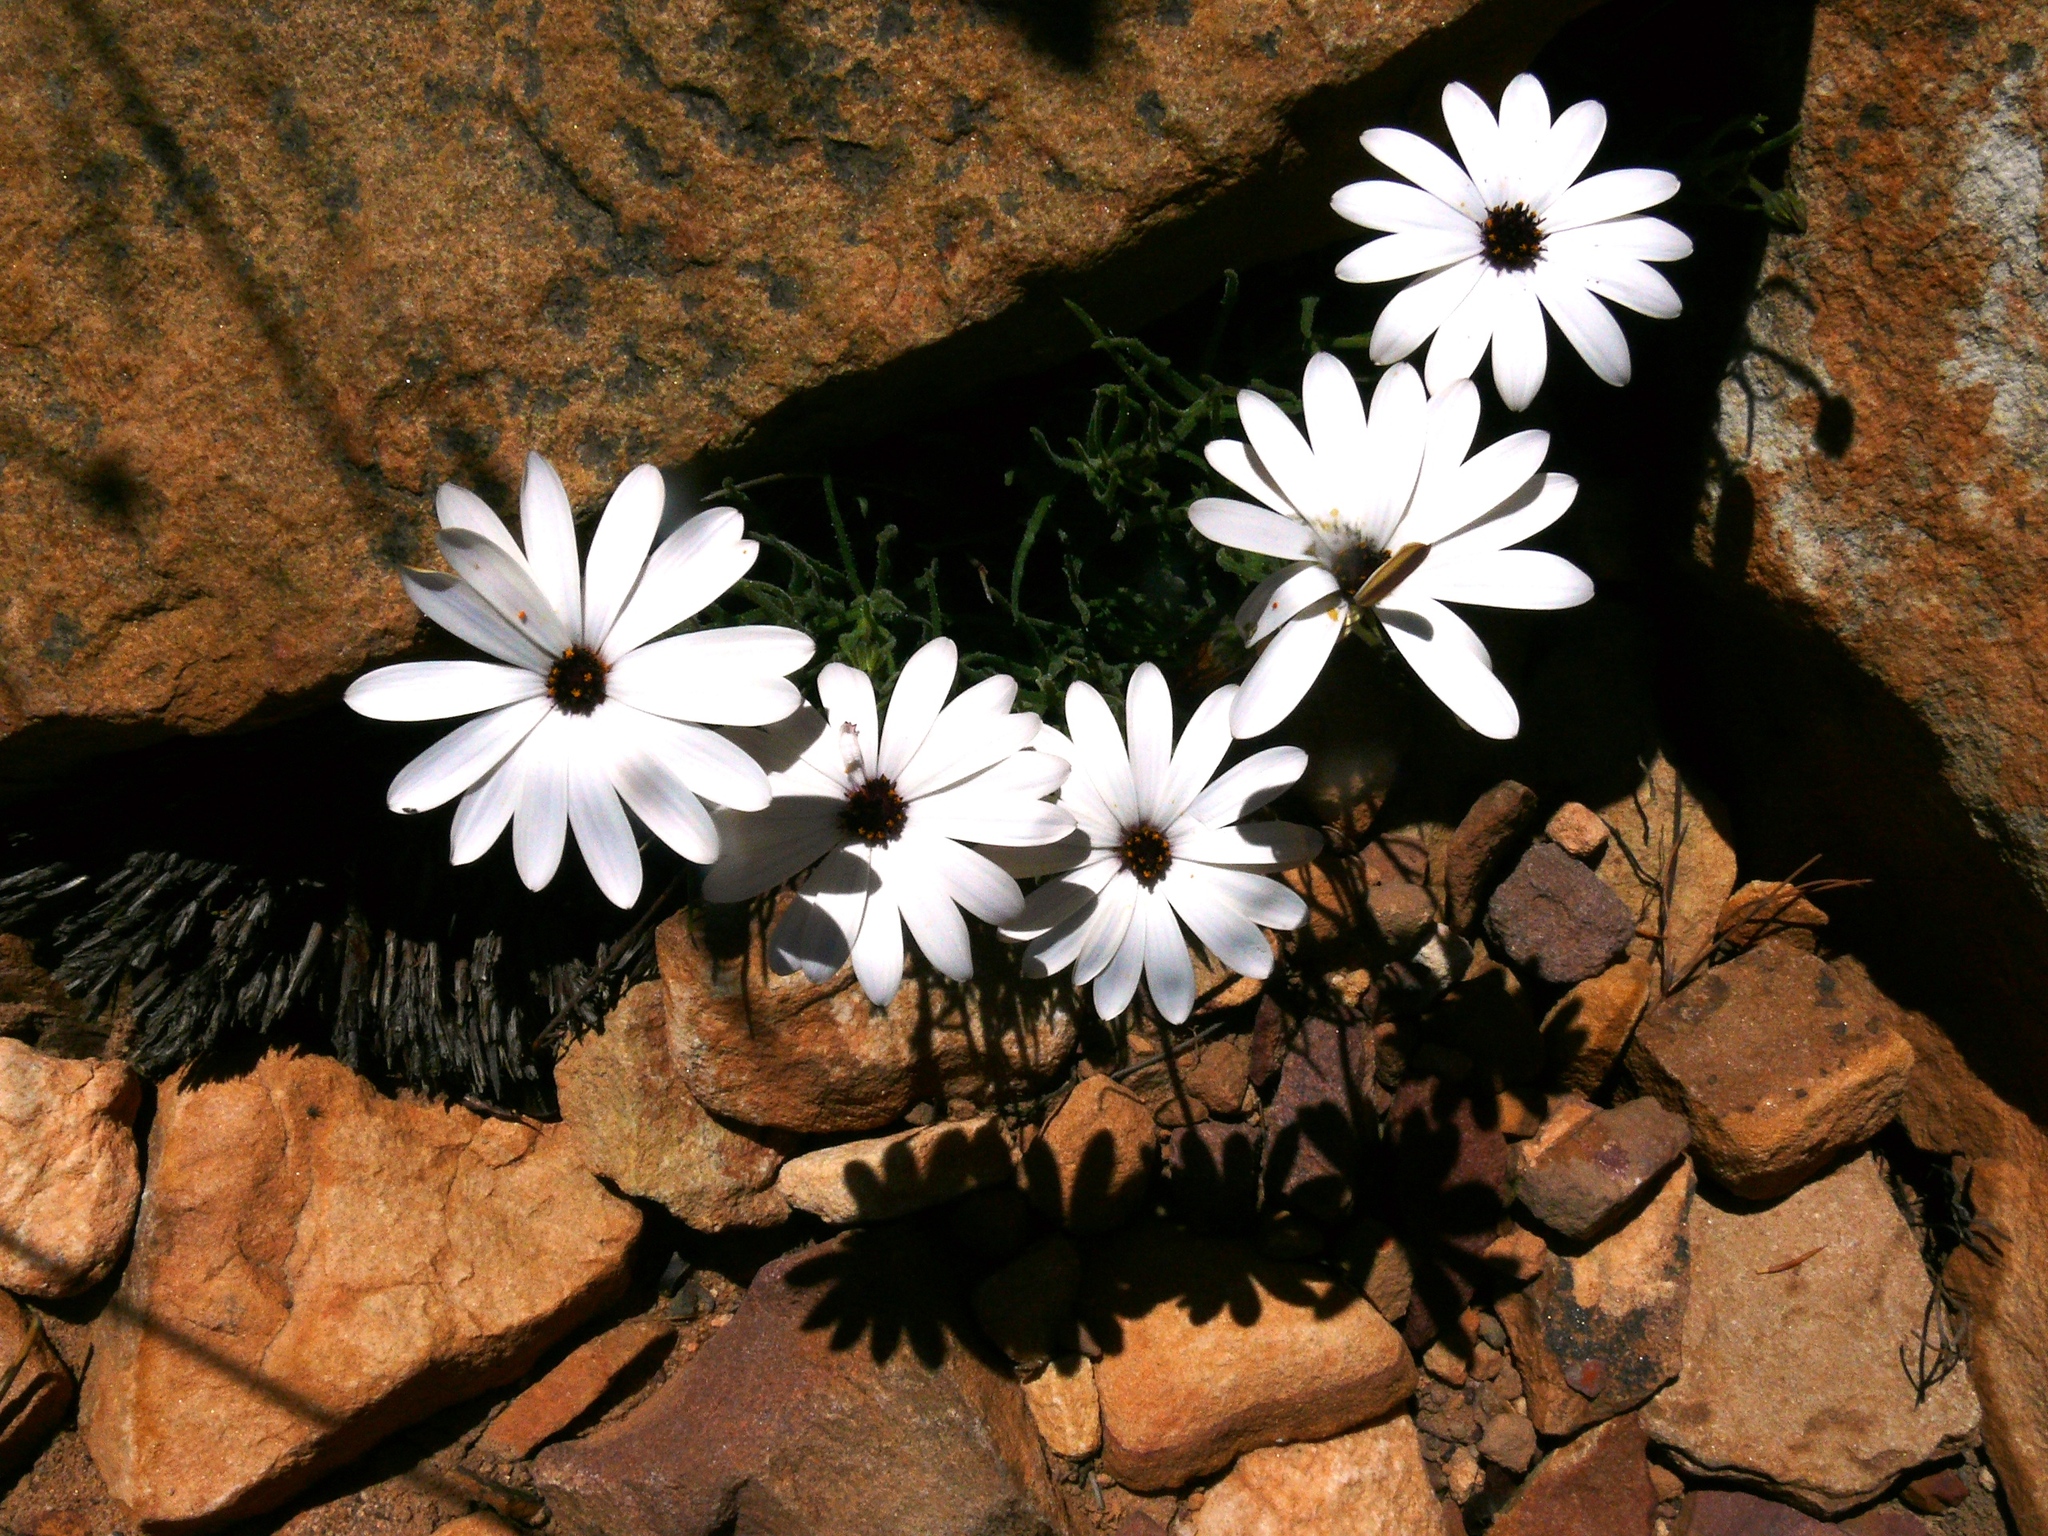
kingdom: Plantae
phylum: Tracheophyta
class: Magnoliopsida
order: Asterales
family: Asteraceae
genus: Dimorphotheca
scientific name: Dimorphotheca nudicaulis
